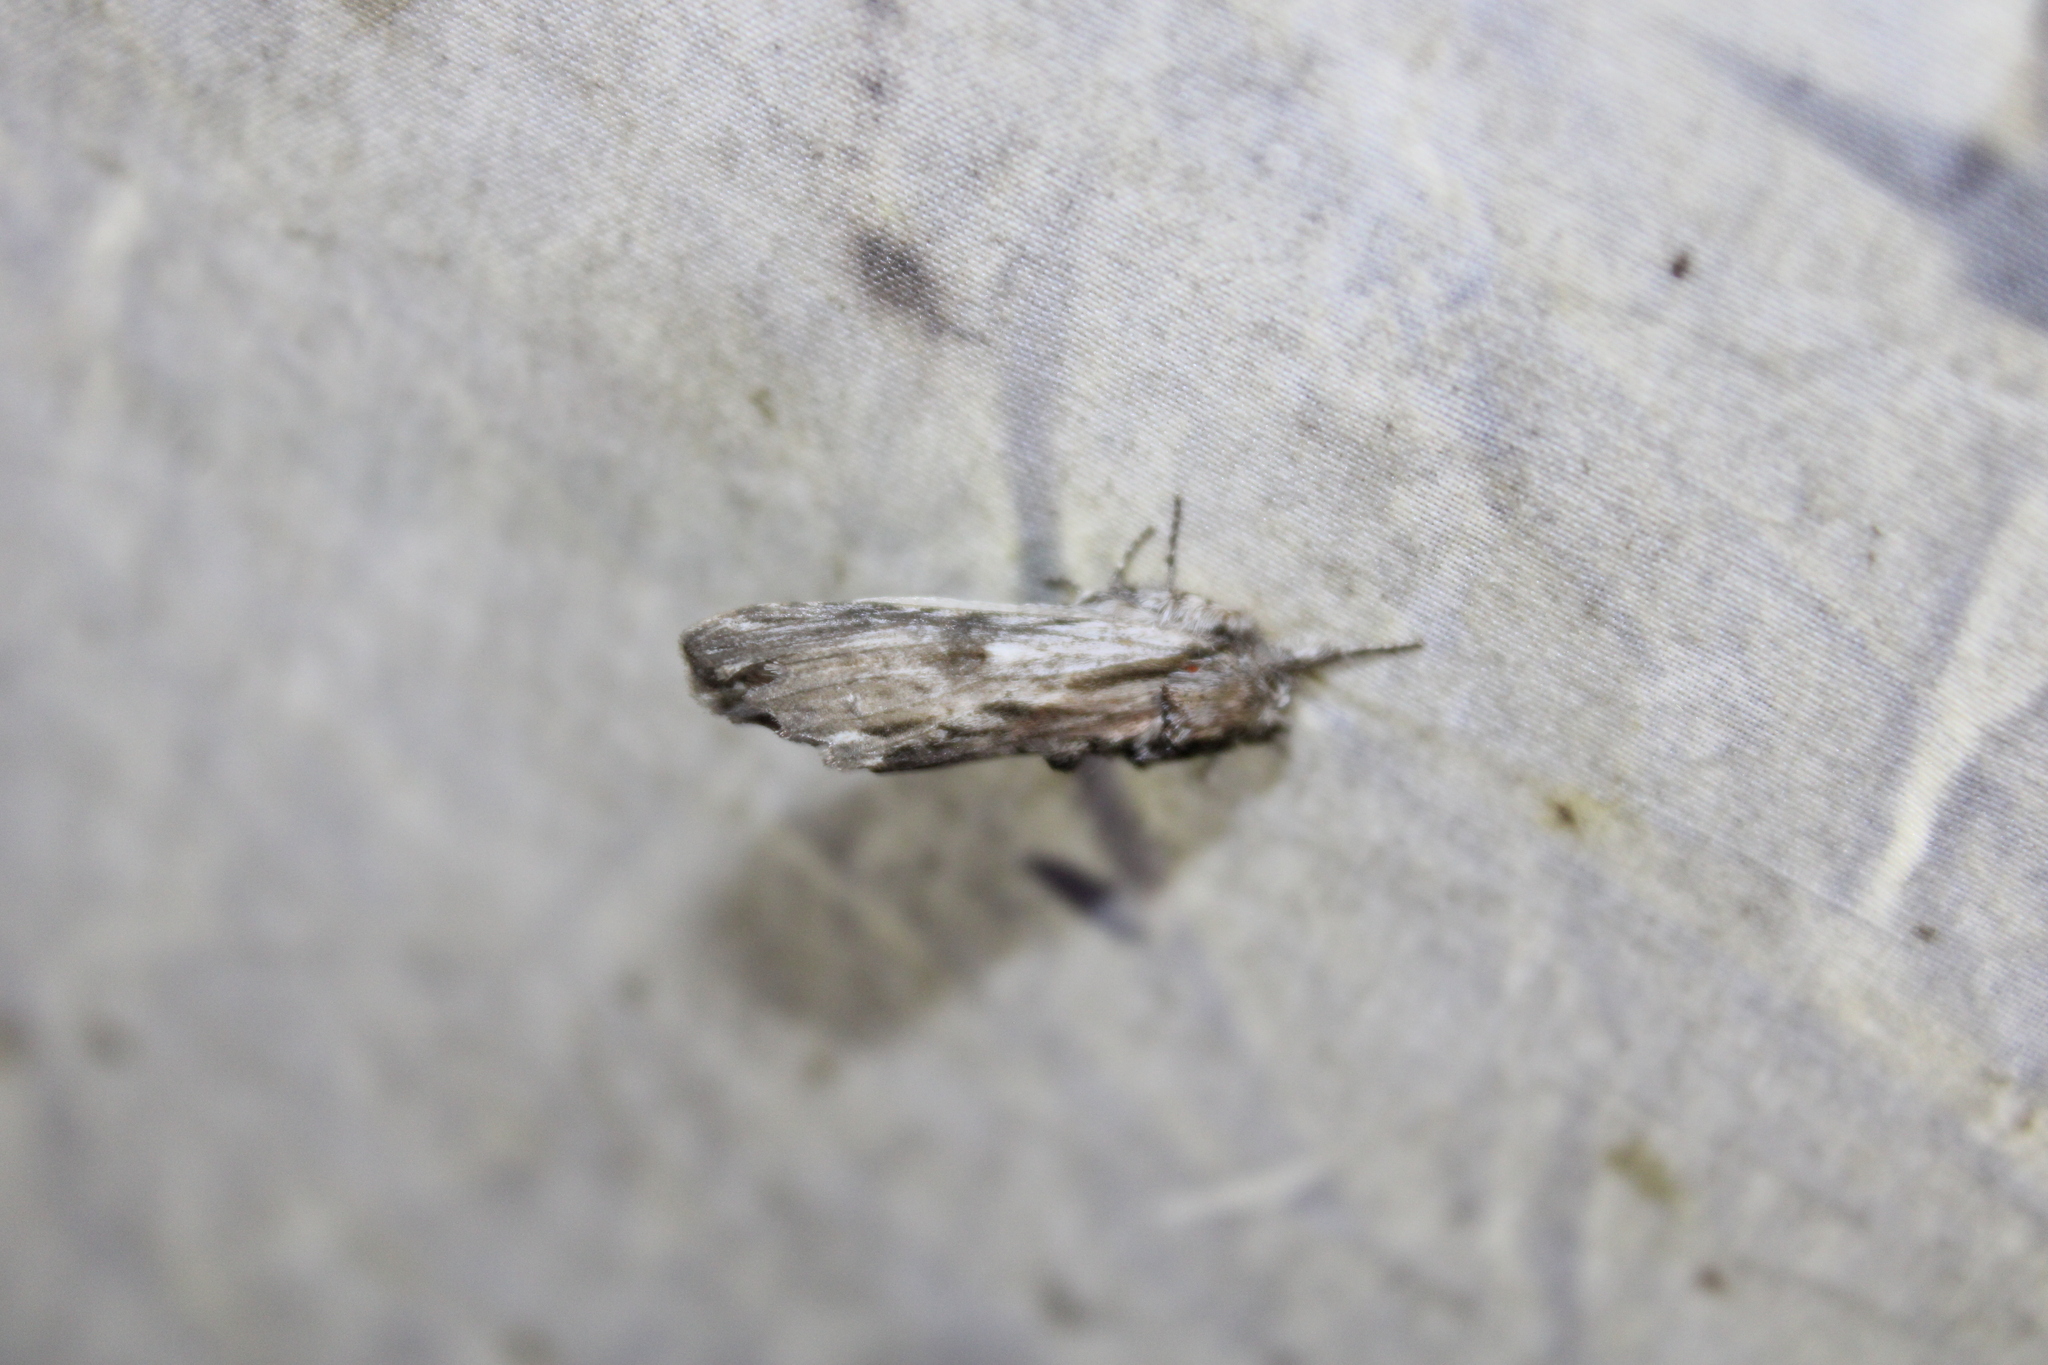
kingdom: Animalia
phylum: Arthropoda
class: Insecta
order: Lepidoptera
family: Notodontidae
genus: Oligocentria
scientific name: Oligocentria Ianassa lignicolor
